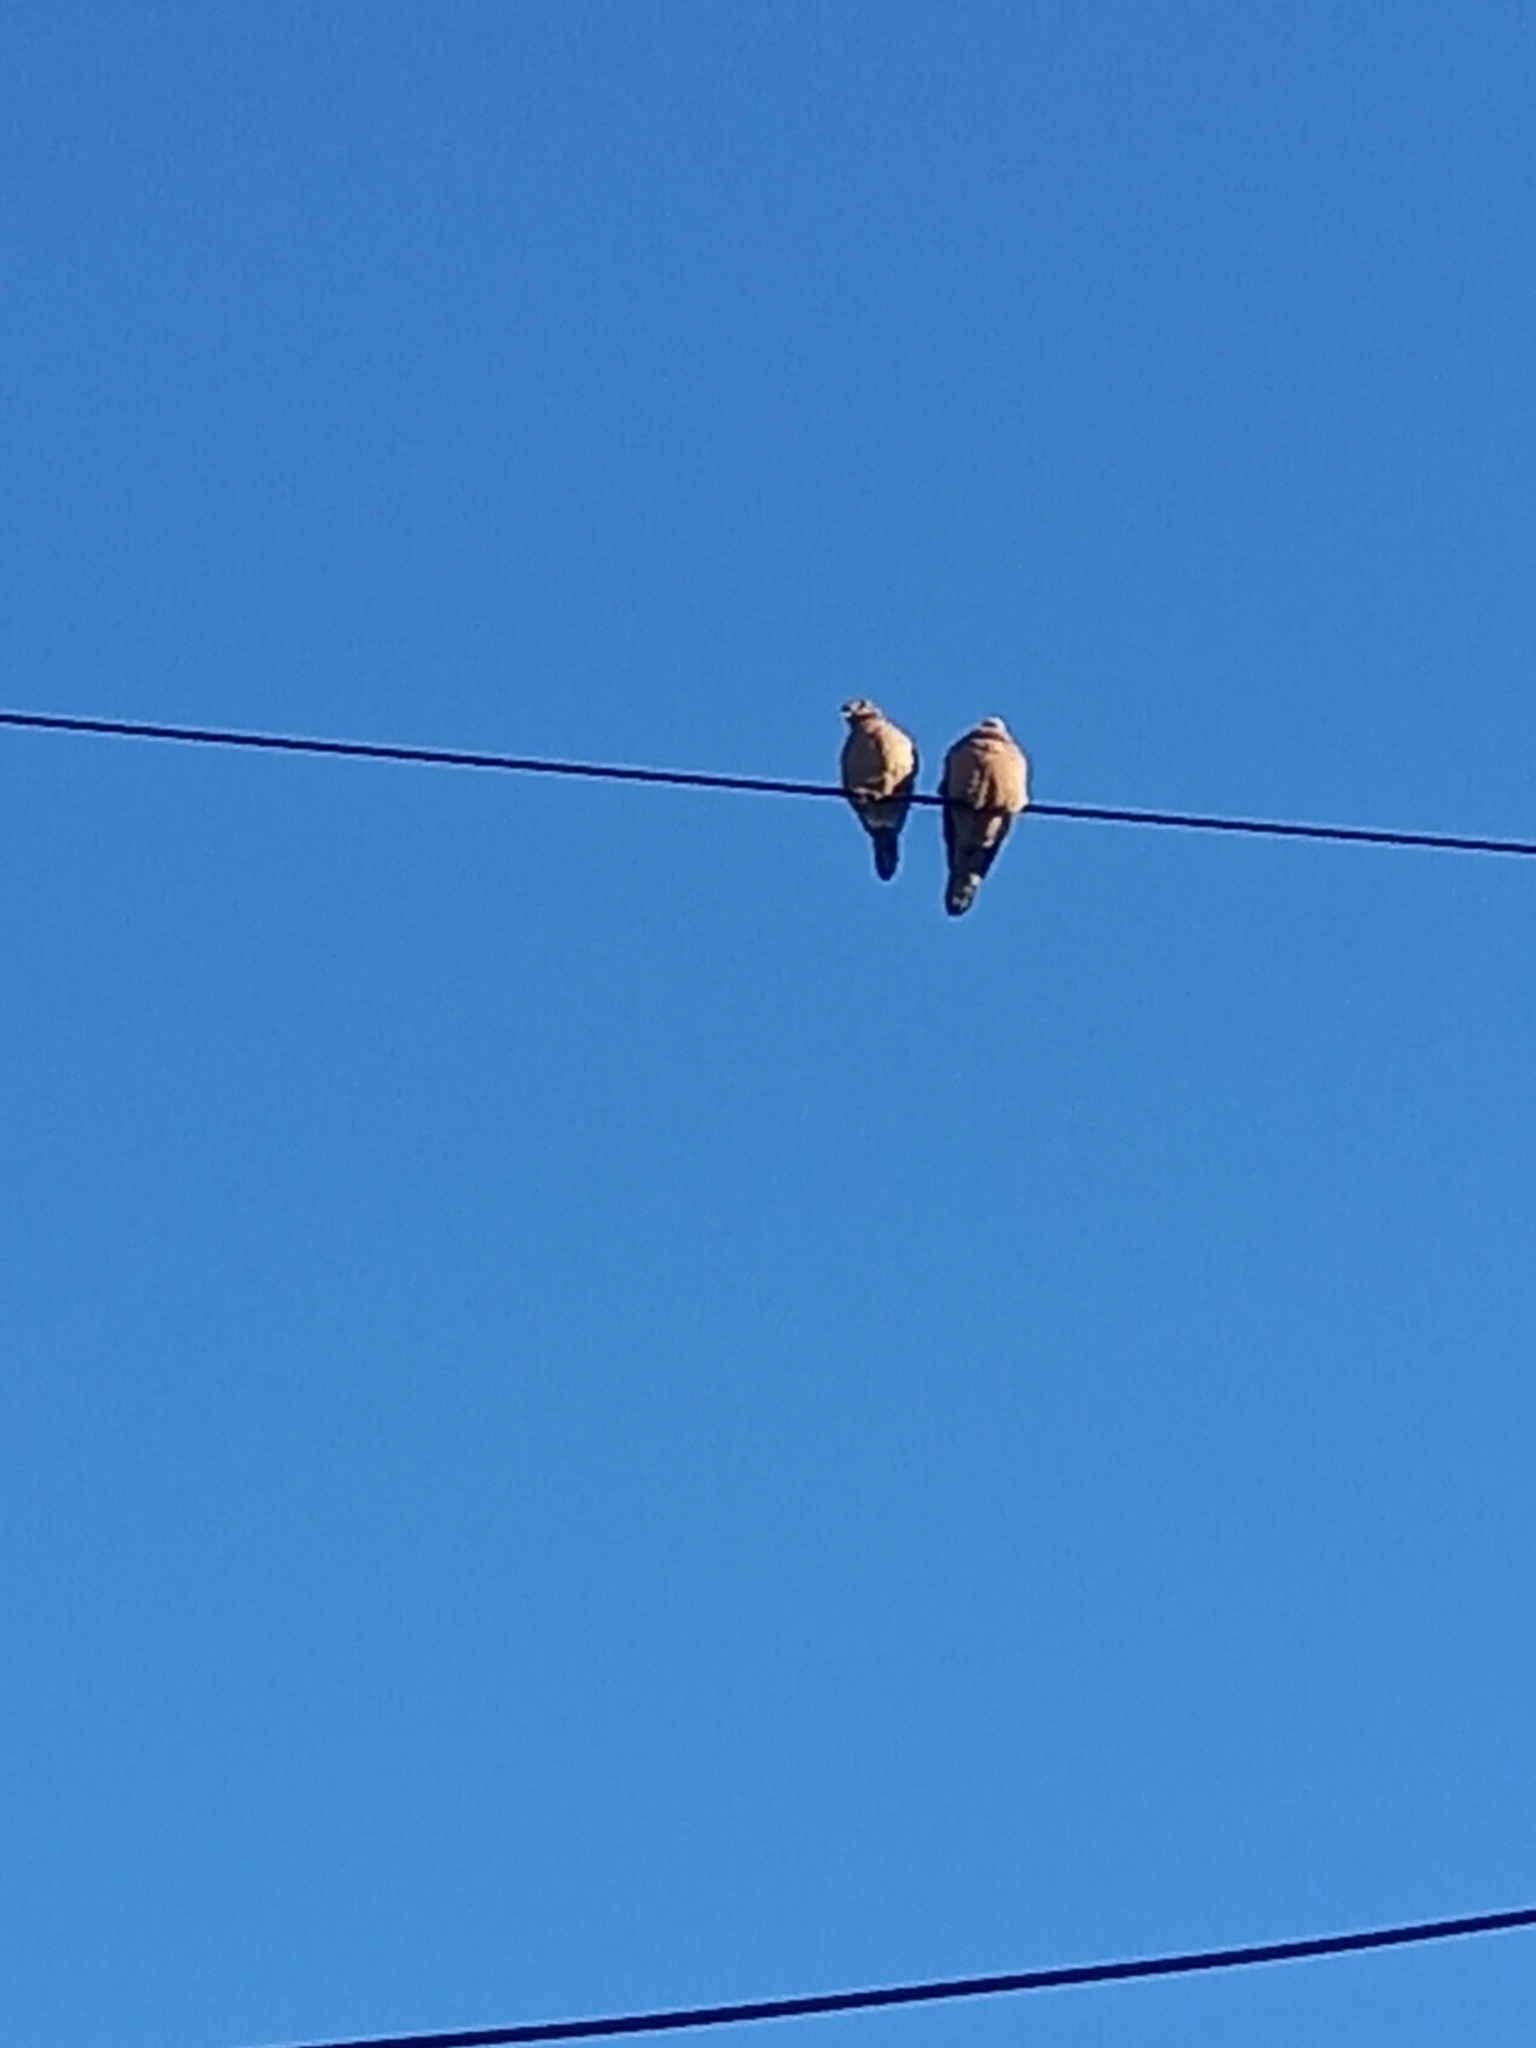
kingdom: Animalia
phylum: Chordata
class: Aves
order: Columbiformes
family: Columbidae
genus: Zenaida
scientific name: Zenaida auriculata
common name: Eared dove
